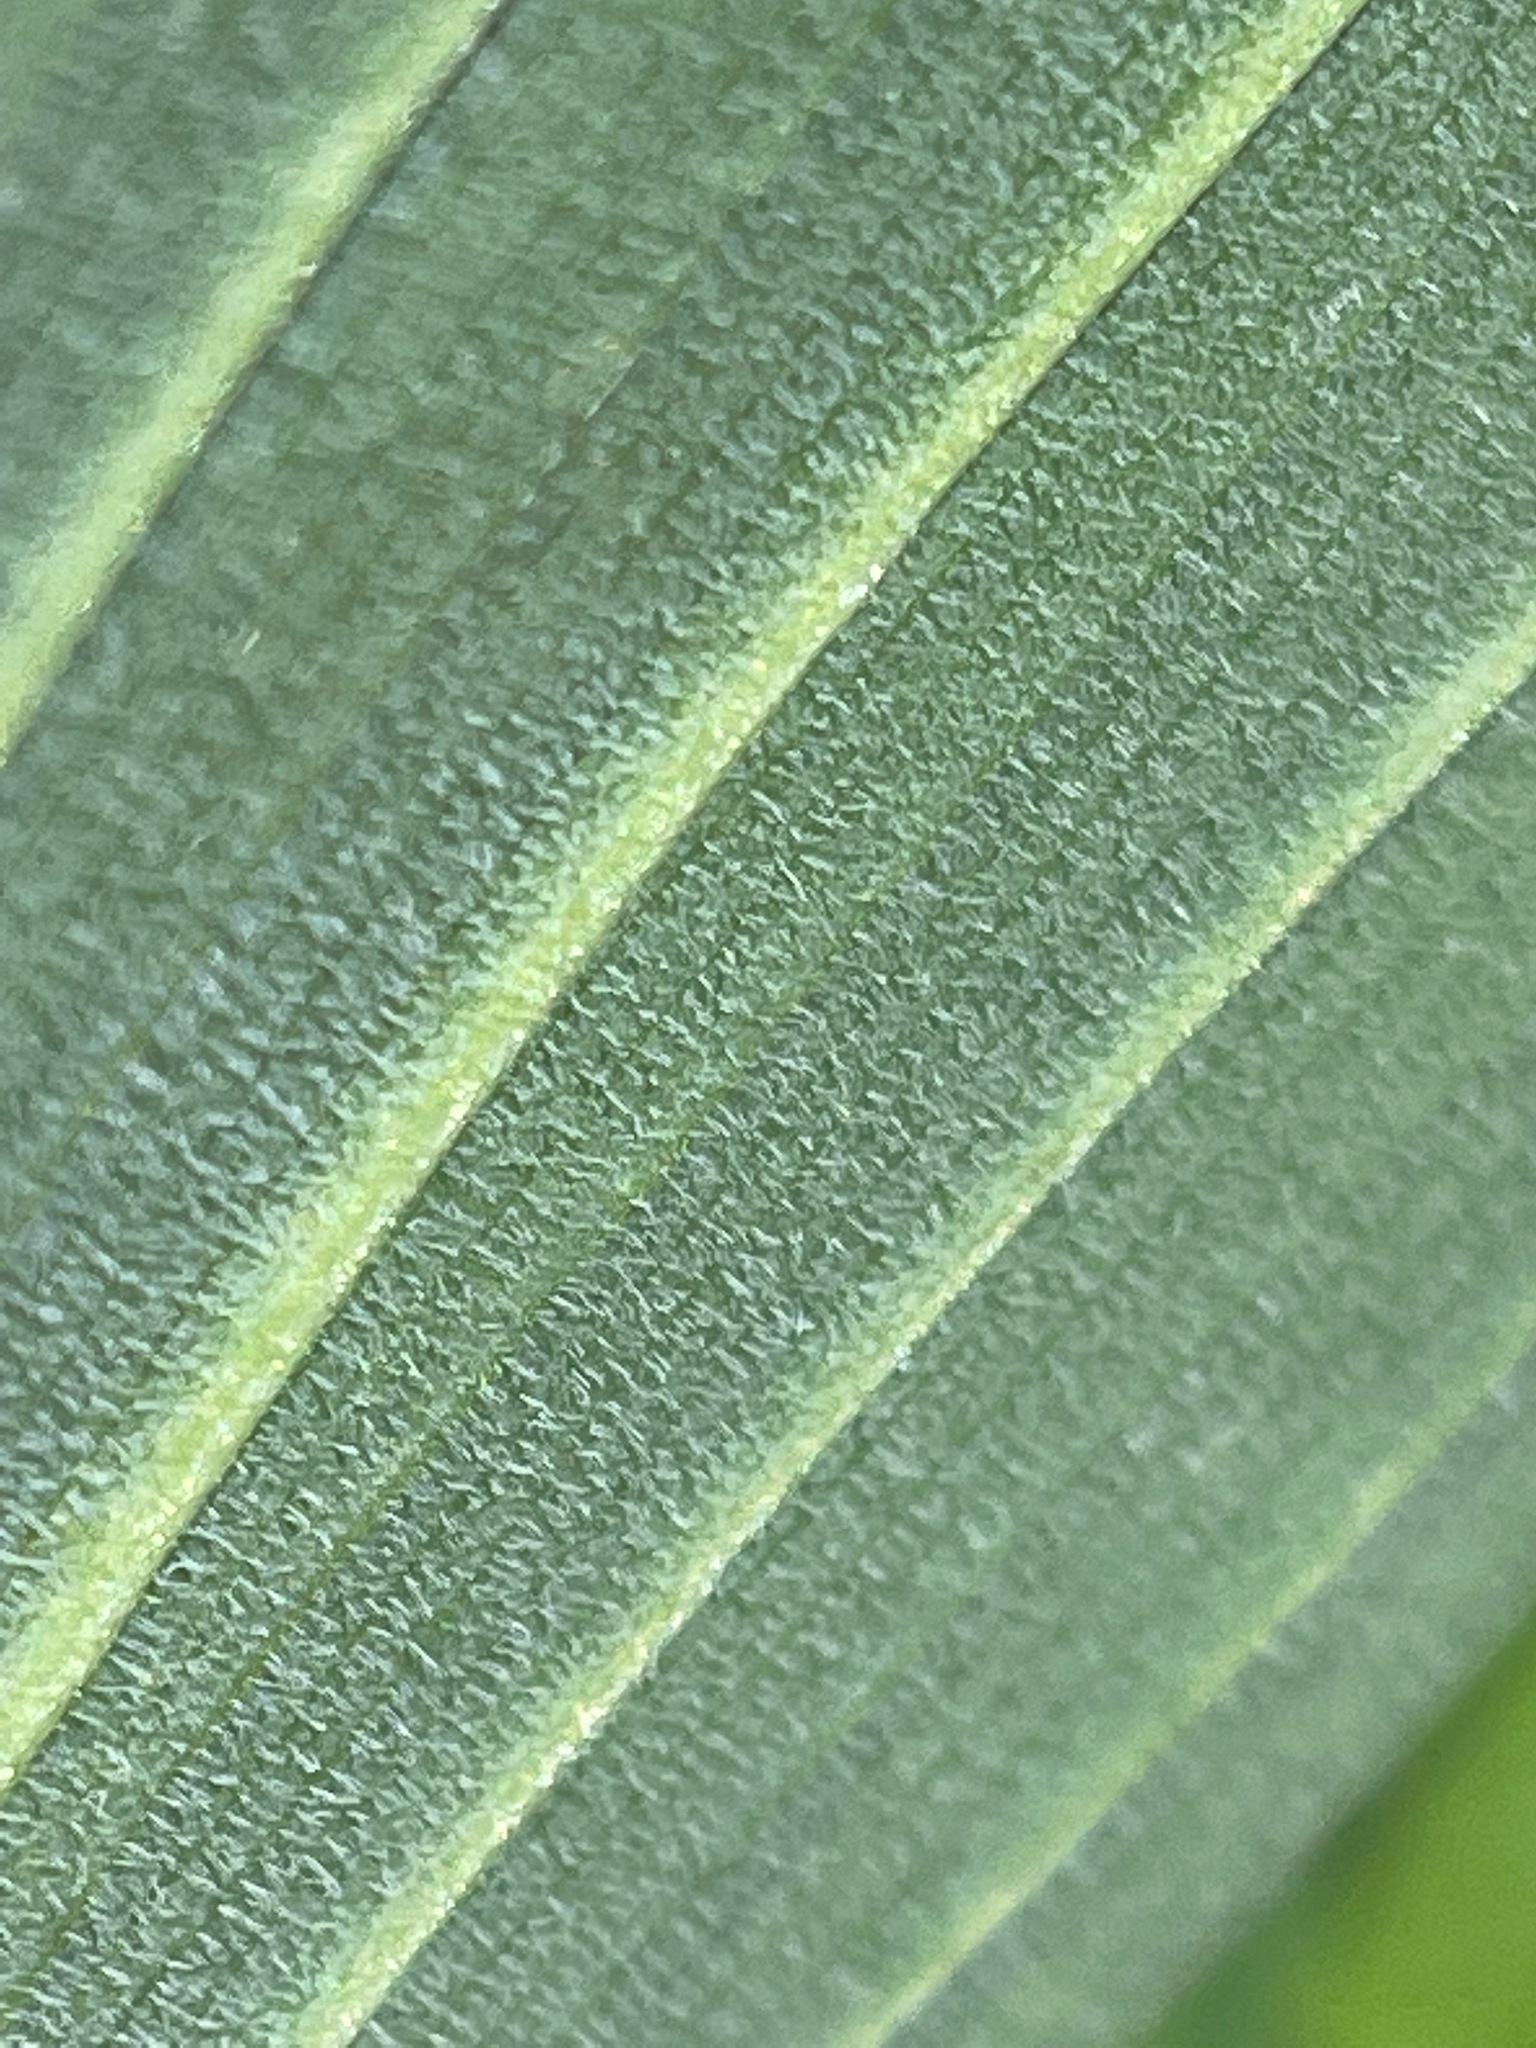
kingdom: Plantae
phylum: Tracheophyta
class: Liliopsida
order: Liliales
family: Colchicaceae
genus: Uvularia
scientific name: Uvularia grandiflora
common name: Bellwort
